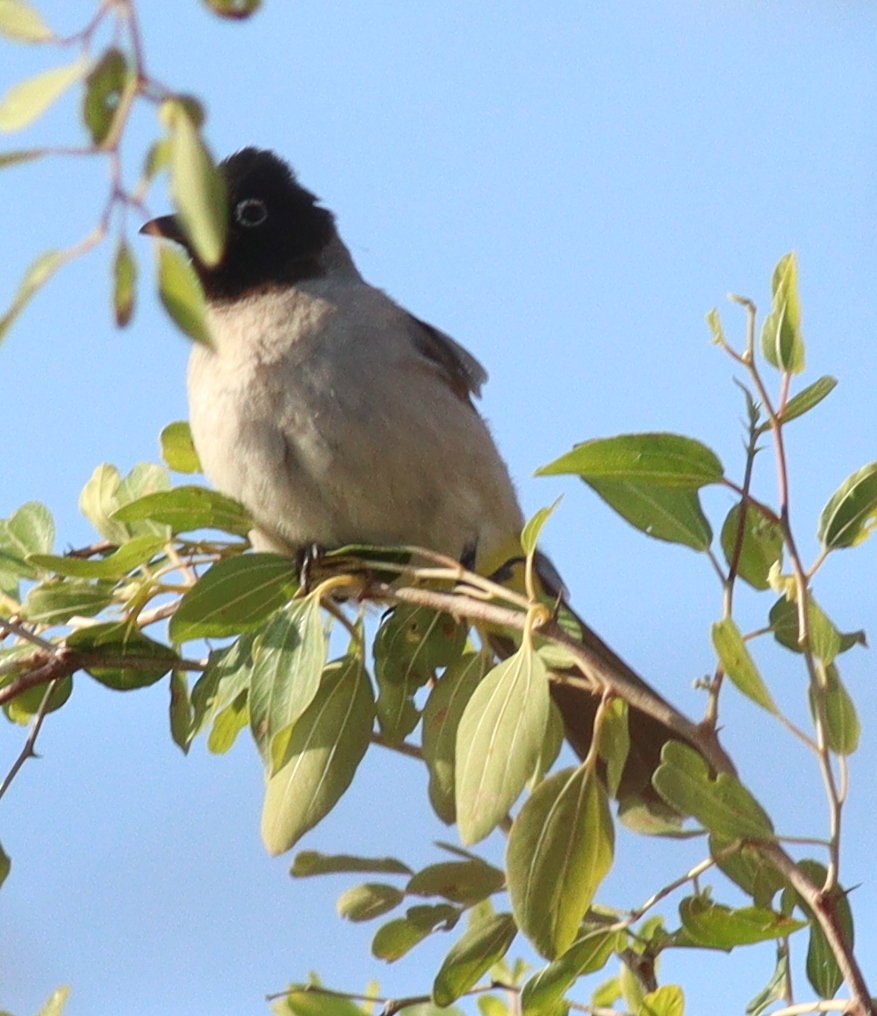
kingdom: Animalia
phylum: Chordata
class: Aves
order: Passeriformes
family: Pycnonotidae
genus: Pycnonotus
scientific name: Pycnonotus xanthopygos
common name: White-spectacled bulbul
